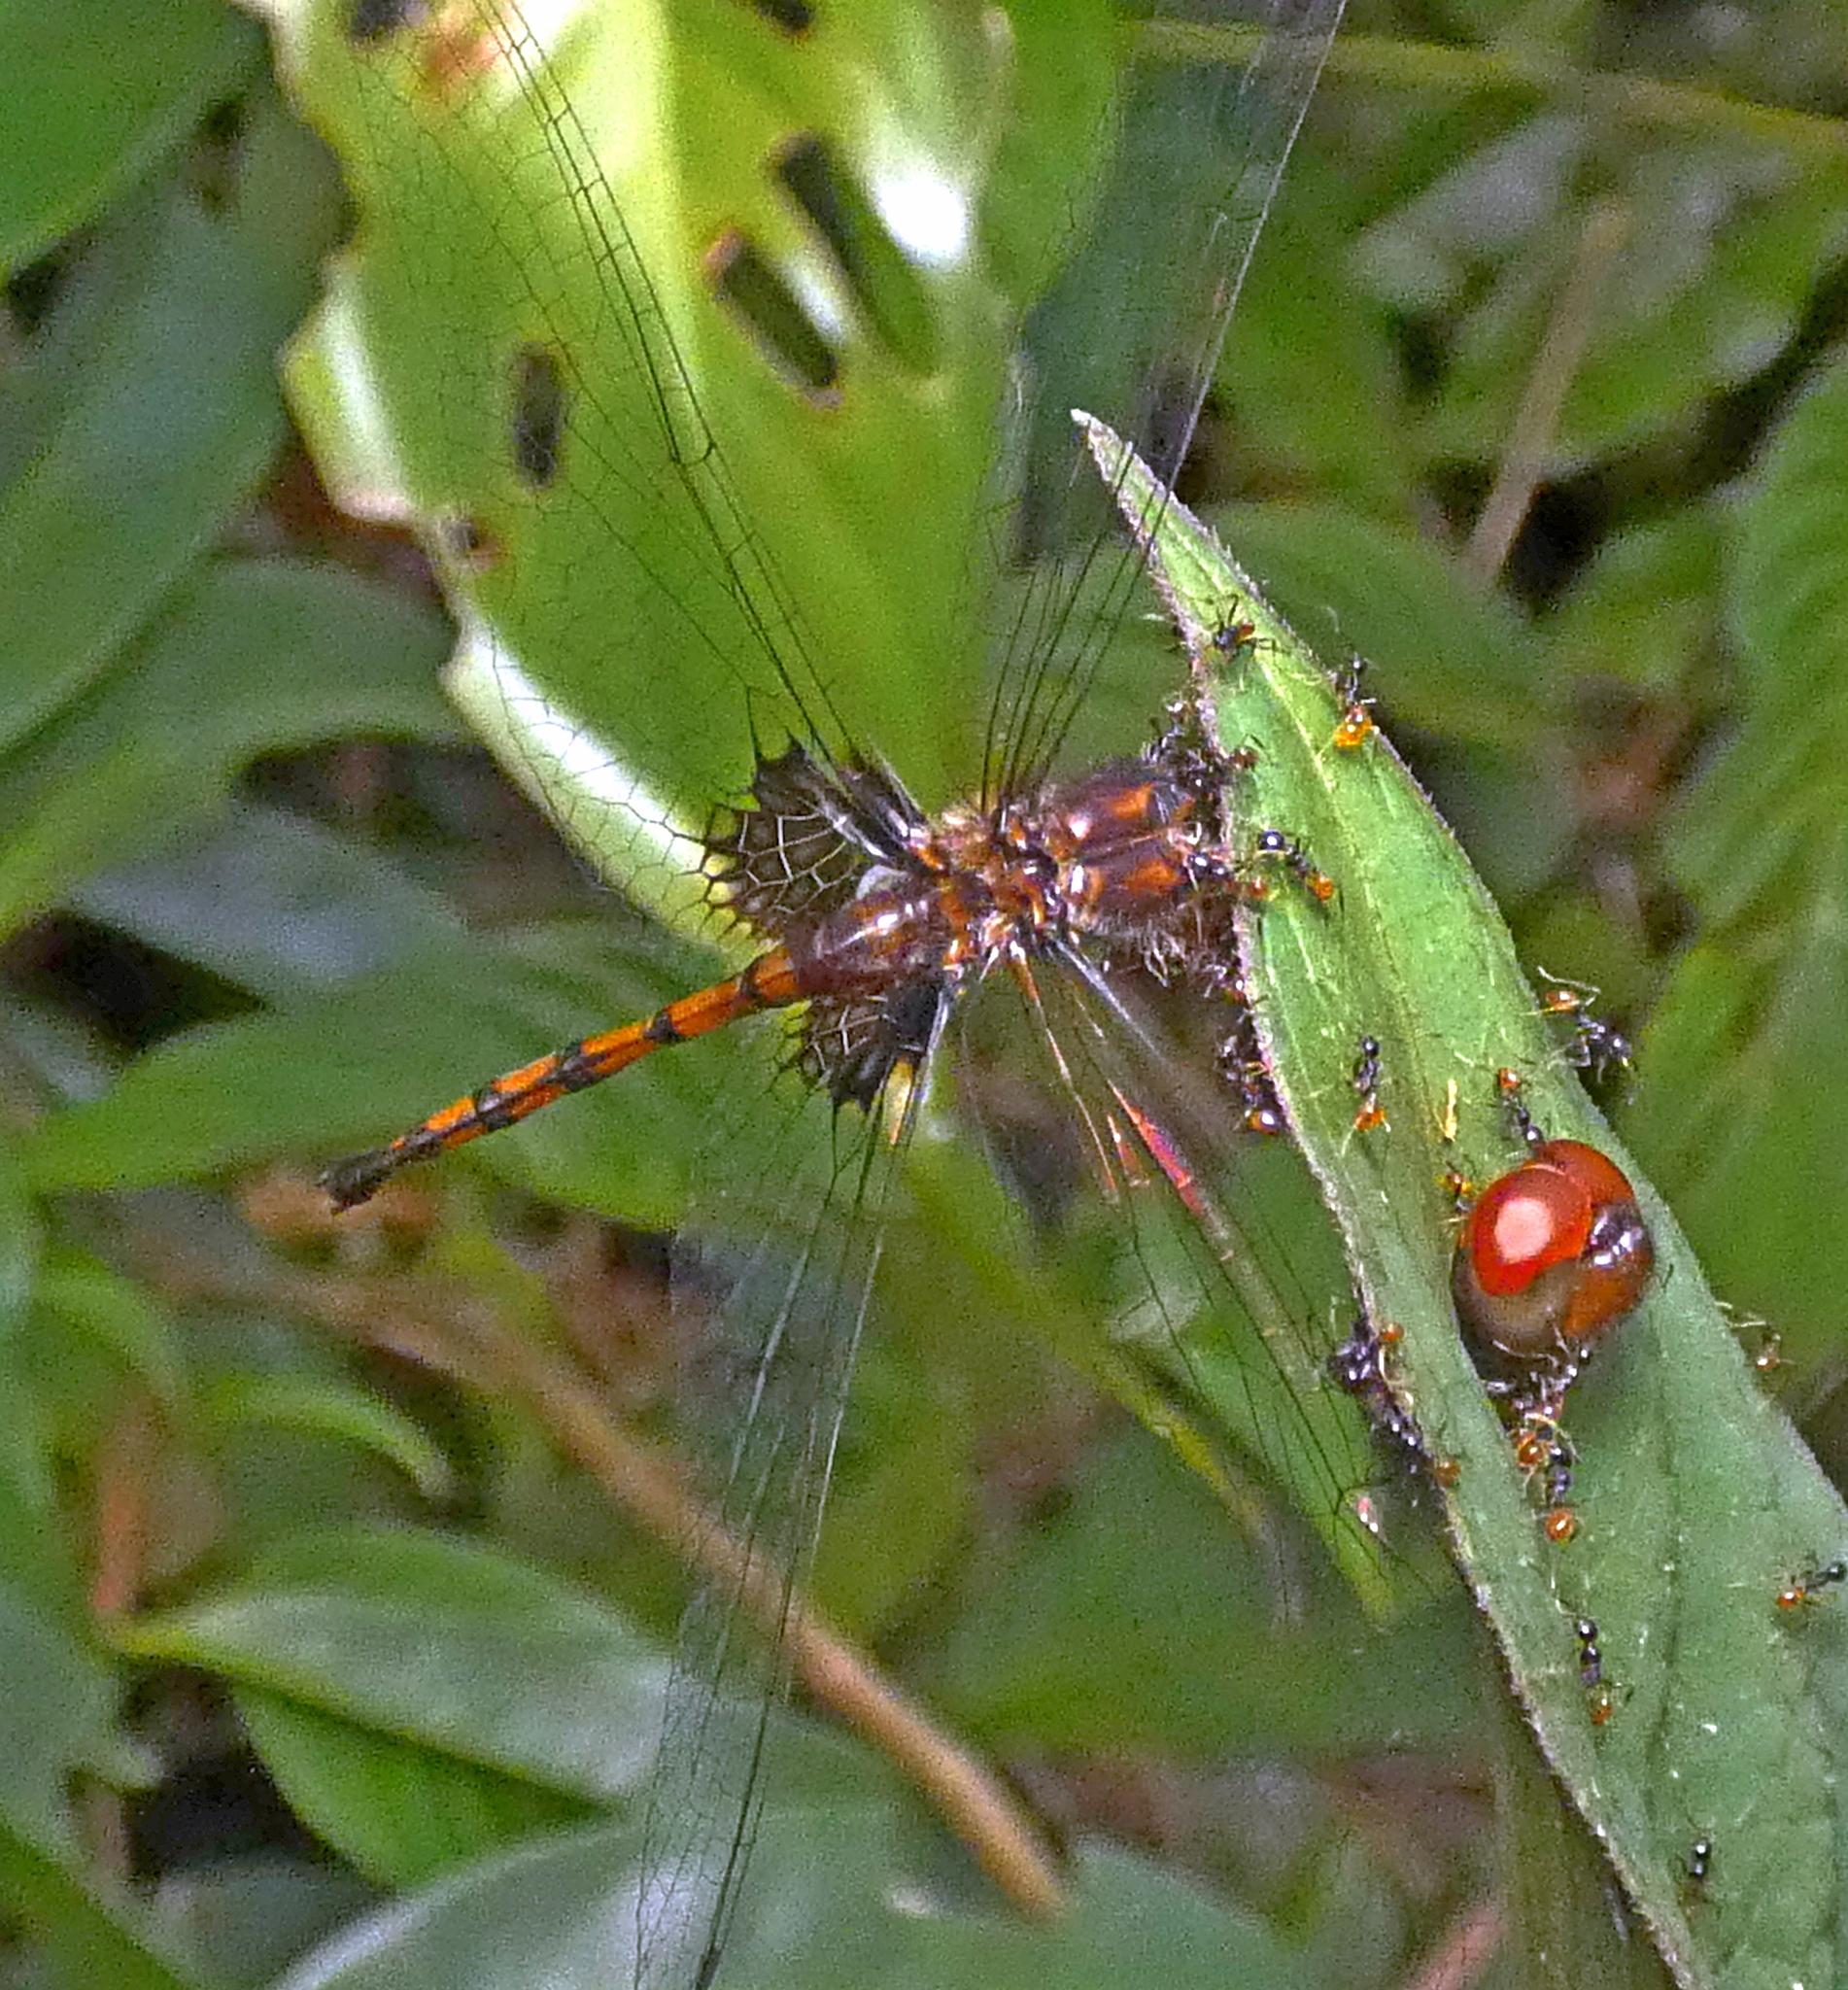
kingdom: Animalia
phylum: Arthropoda
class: Insecta
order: Odonata
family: Libellulidae
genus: Miathyria
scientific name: Miathyria simplex
